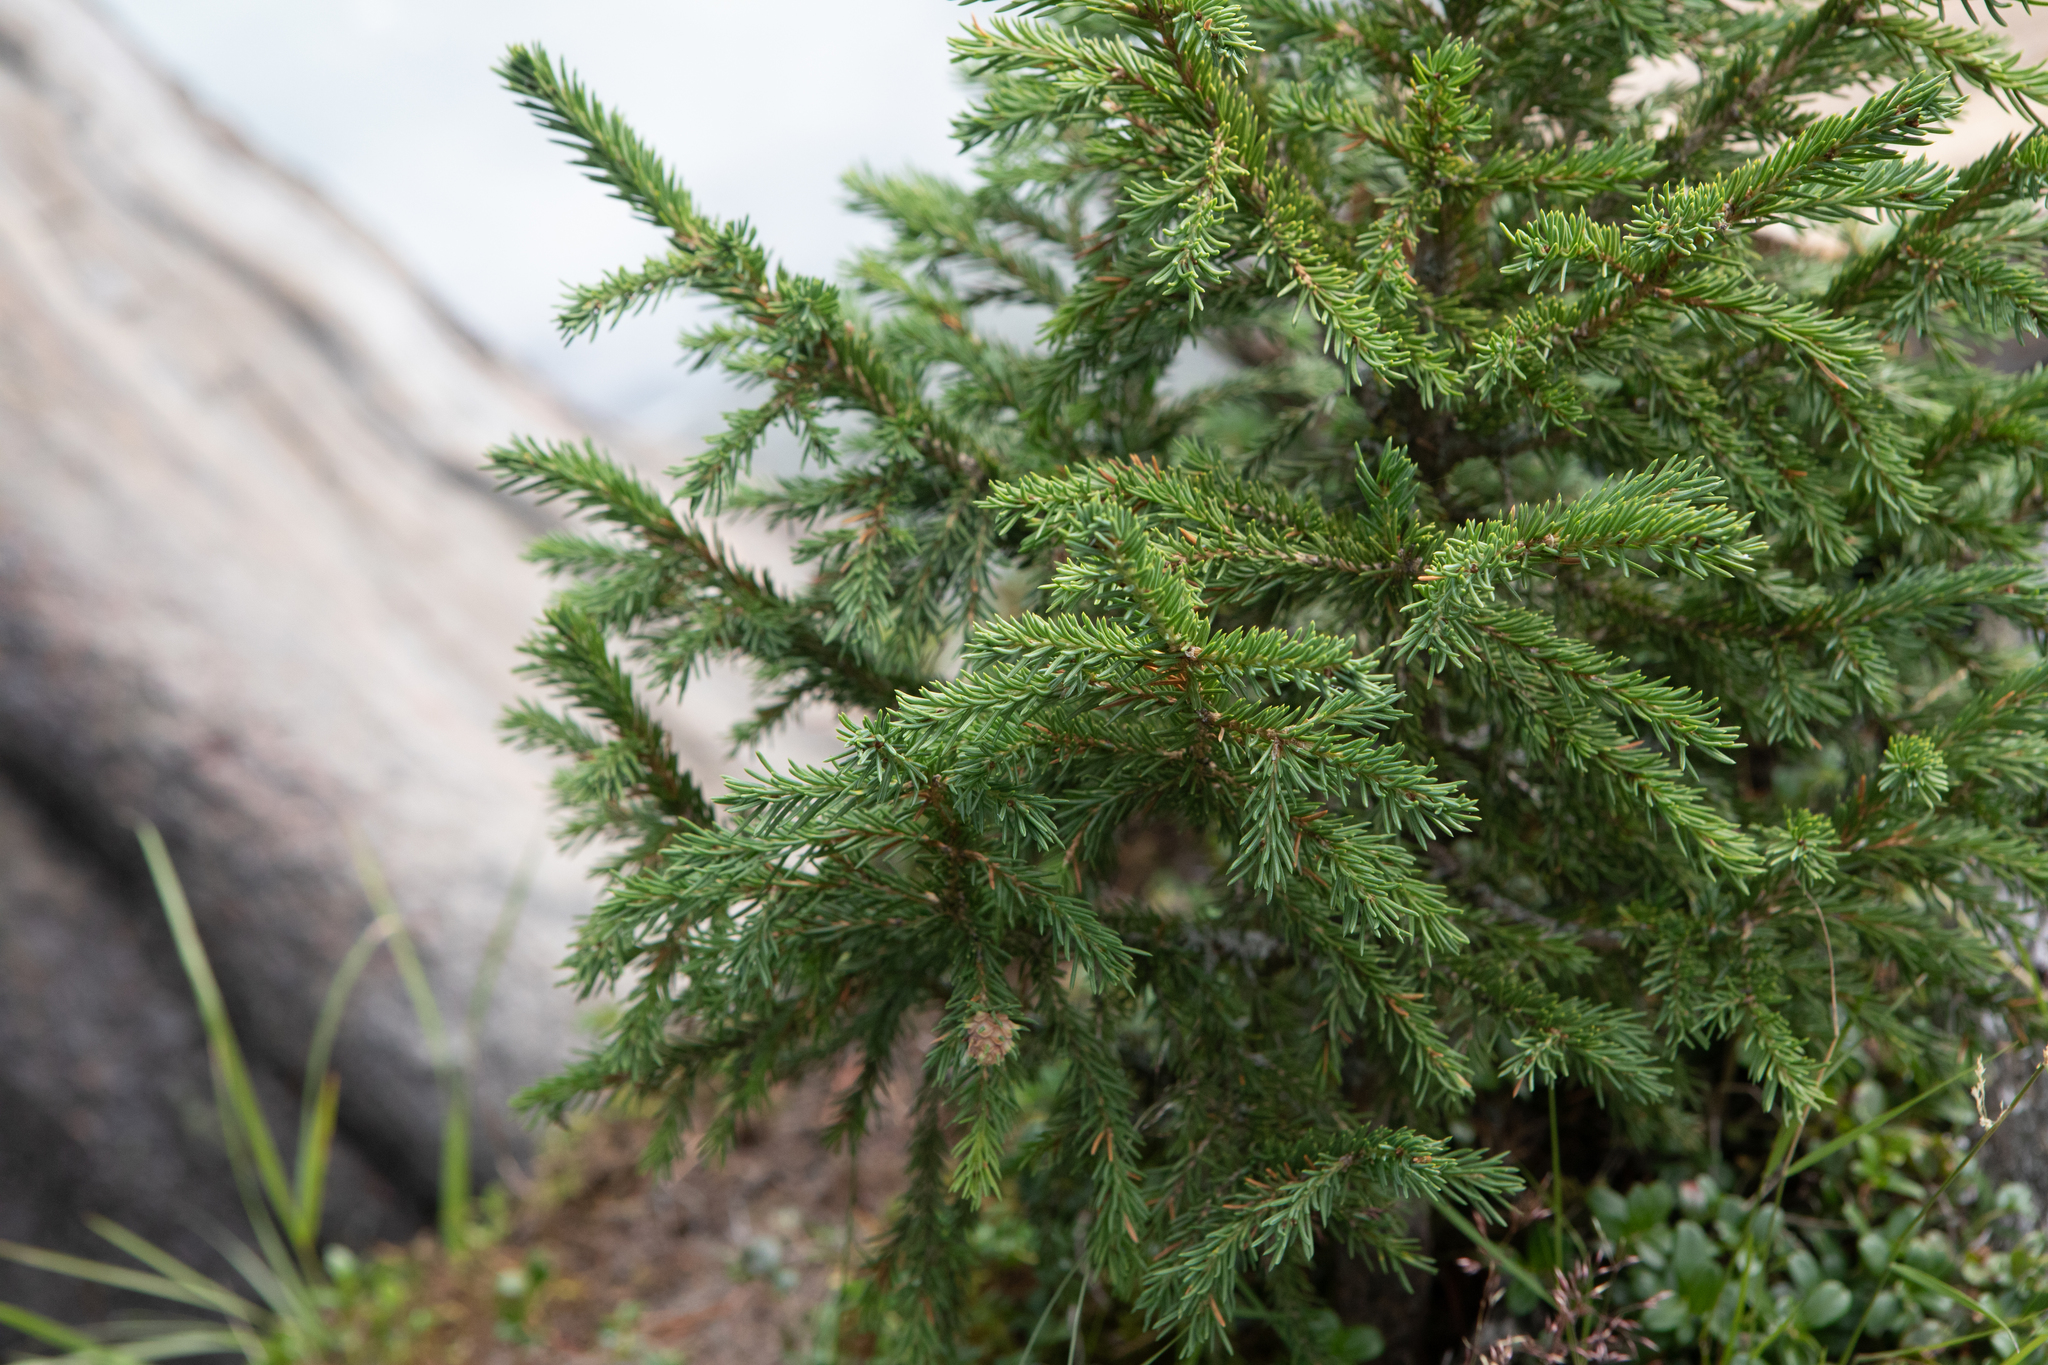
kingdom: Plantae
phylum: Tracheophyta
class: Pinopsida
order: Pinales
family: Pinaceae
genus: Picea
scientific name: Picea obovata
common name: Siberian spruce
